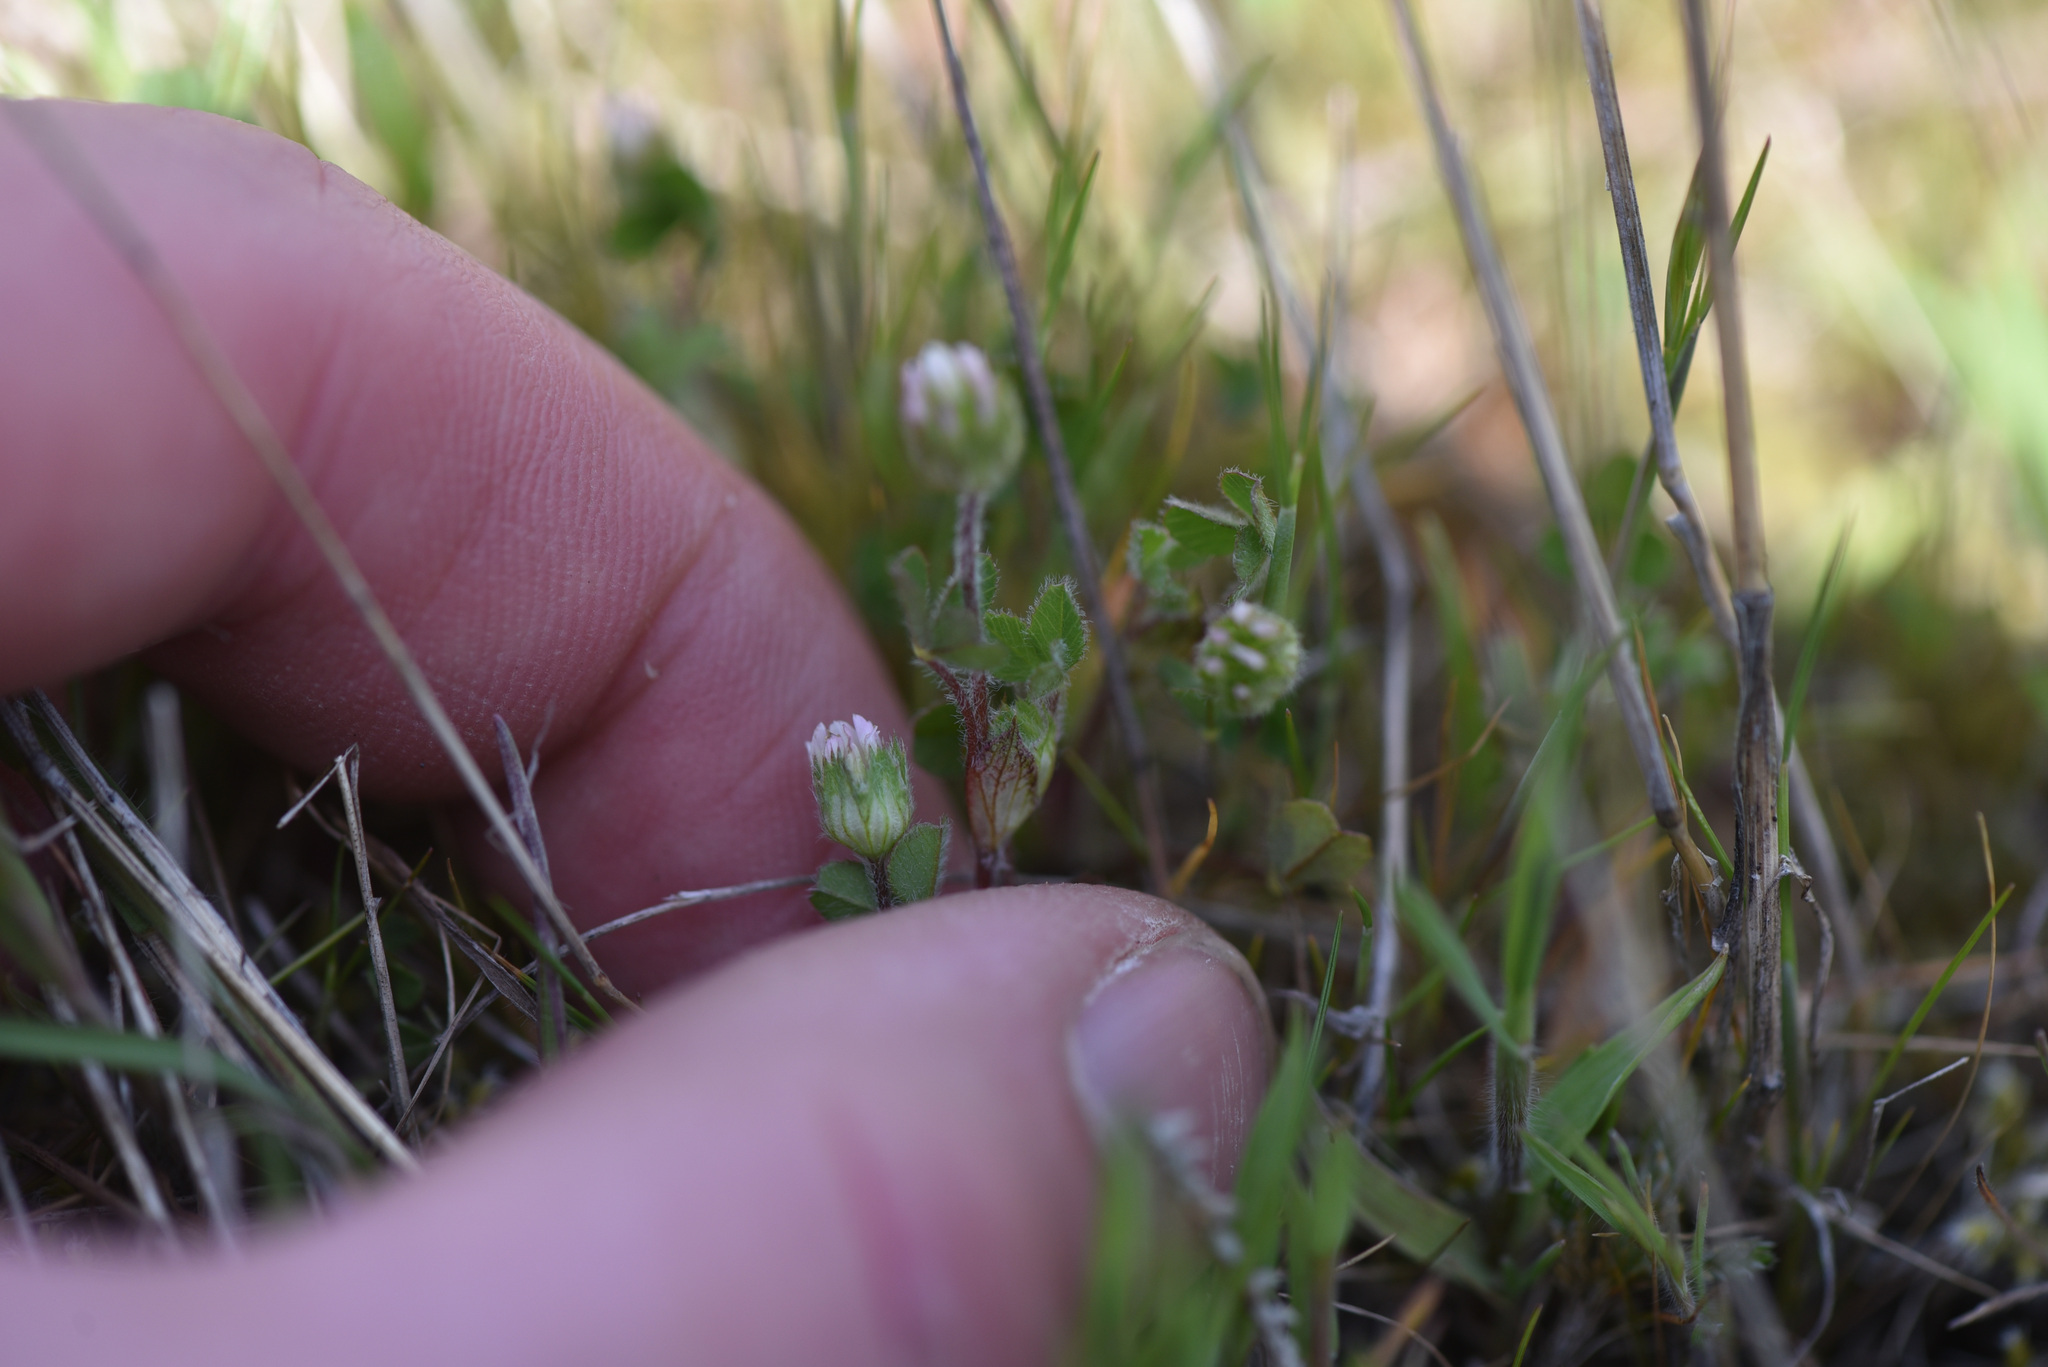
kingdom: Plantae
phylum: Tracheophyta
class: Magnoliopsida
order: Fabales
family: Fabaceae
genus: Trifolium
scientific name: Trifolium microdon
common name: Thimble clover
